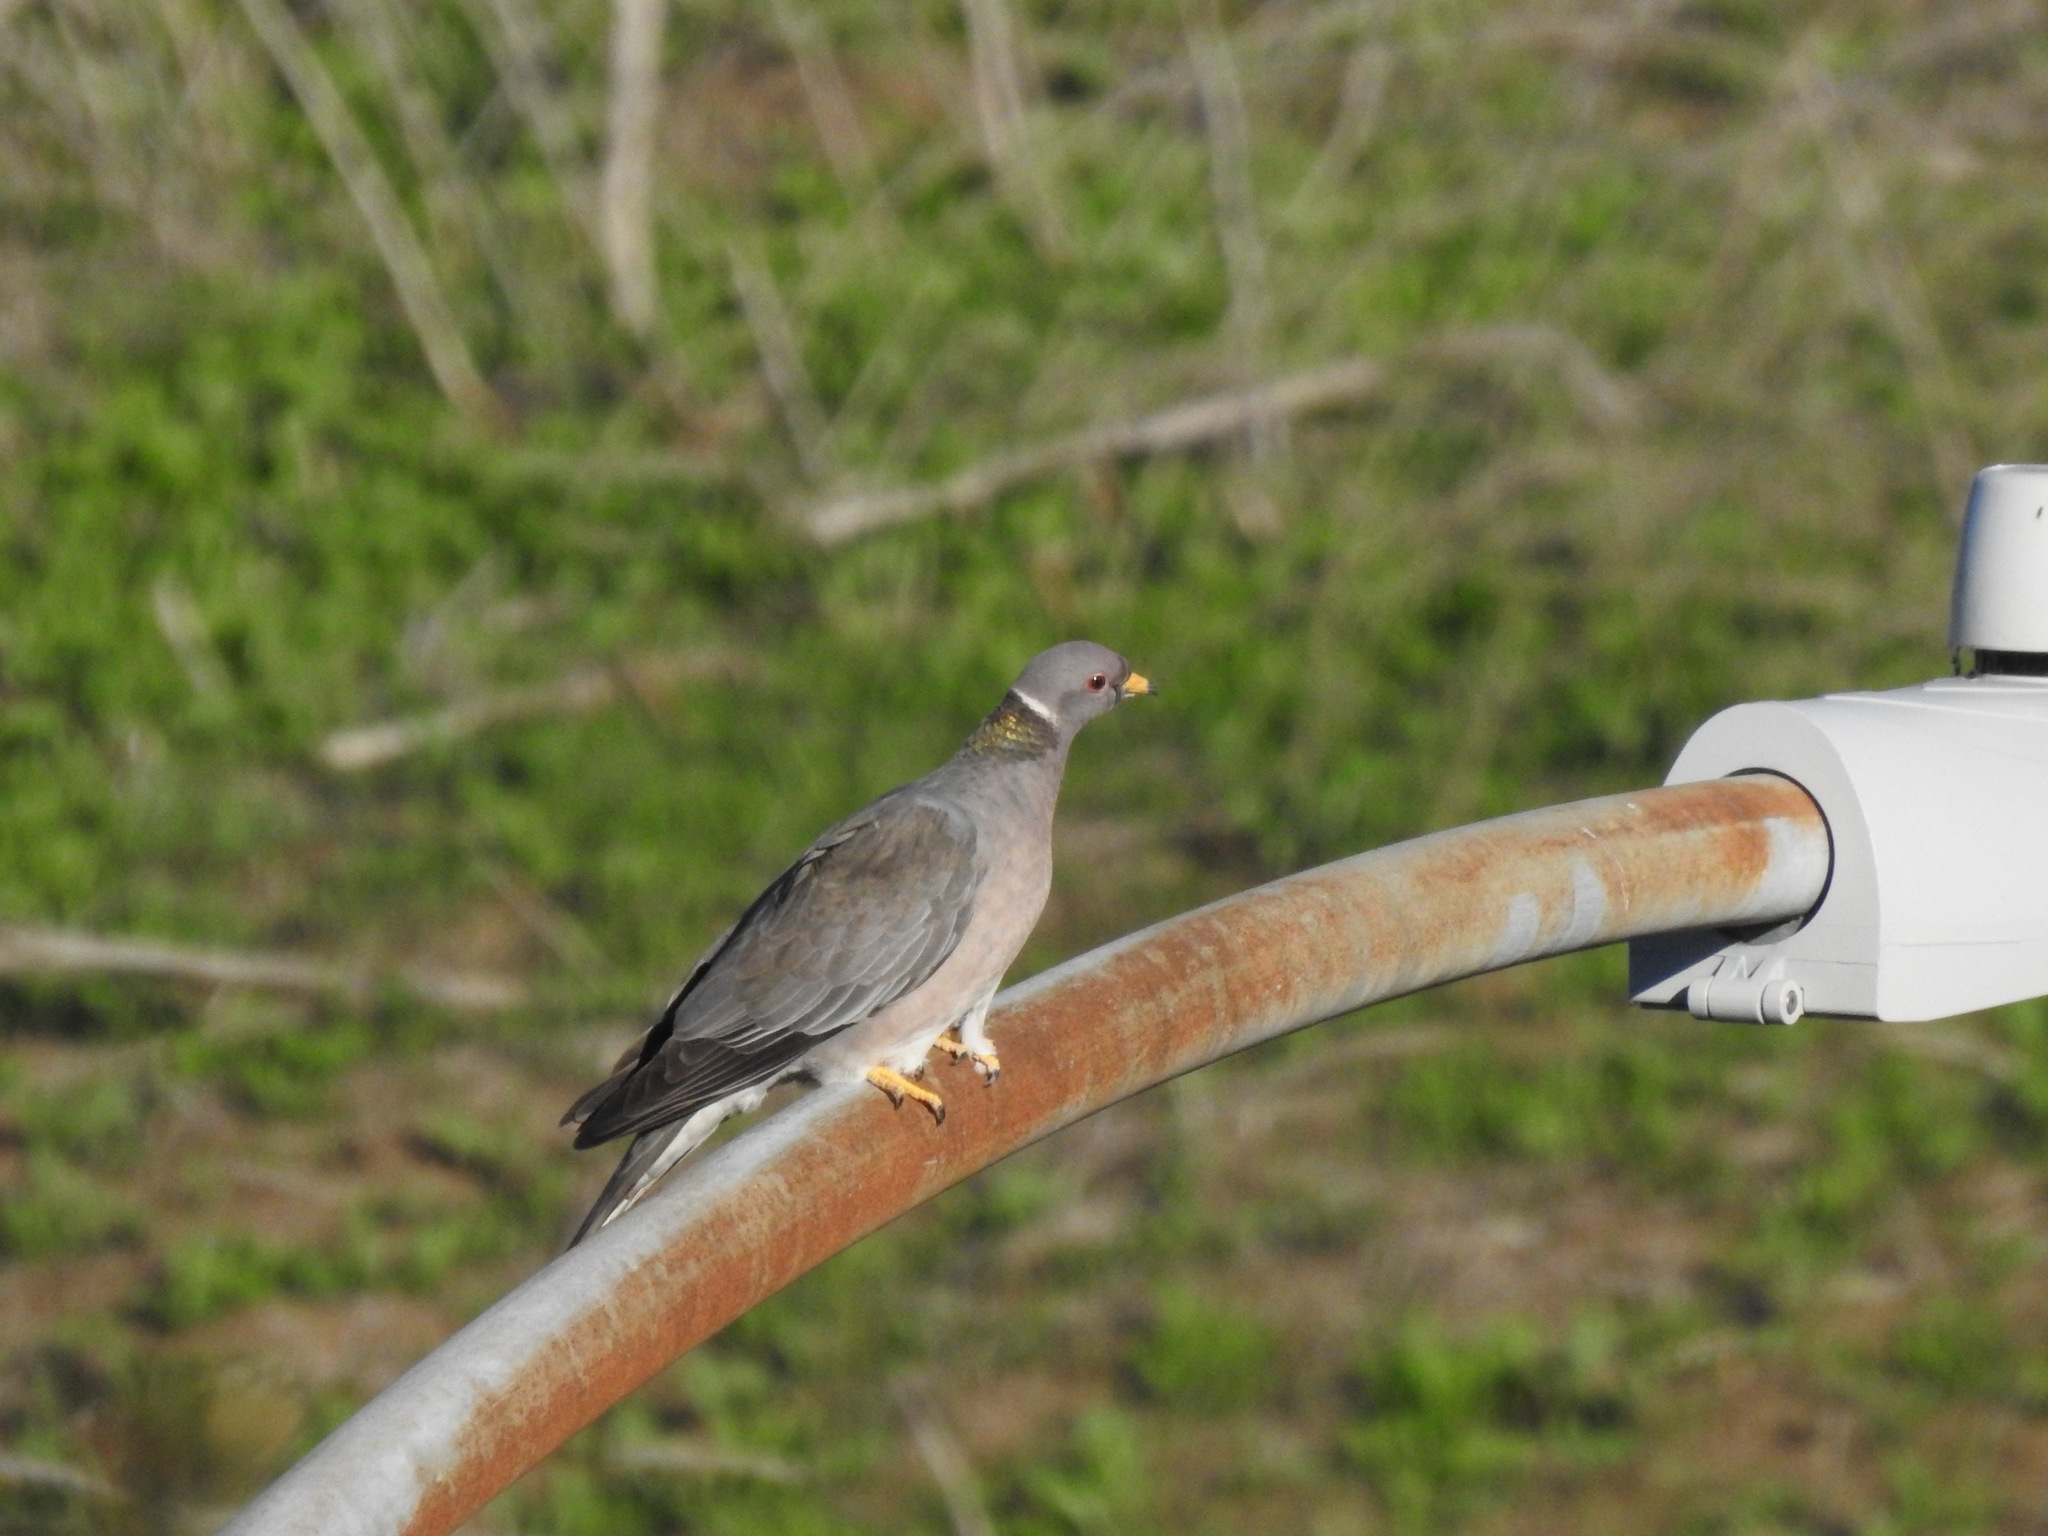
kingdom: Animalia
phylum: Chordata
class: Aves
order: Columbiformes
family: Columbidae
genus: Patagioenas
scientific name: Patagioenas fasciata
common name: Band-tailed pigeon
